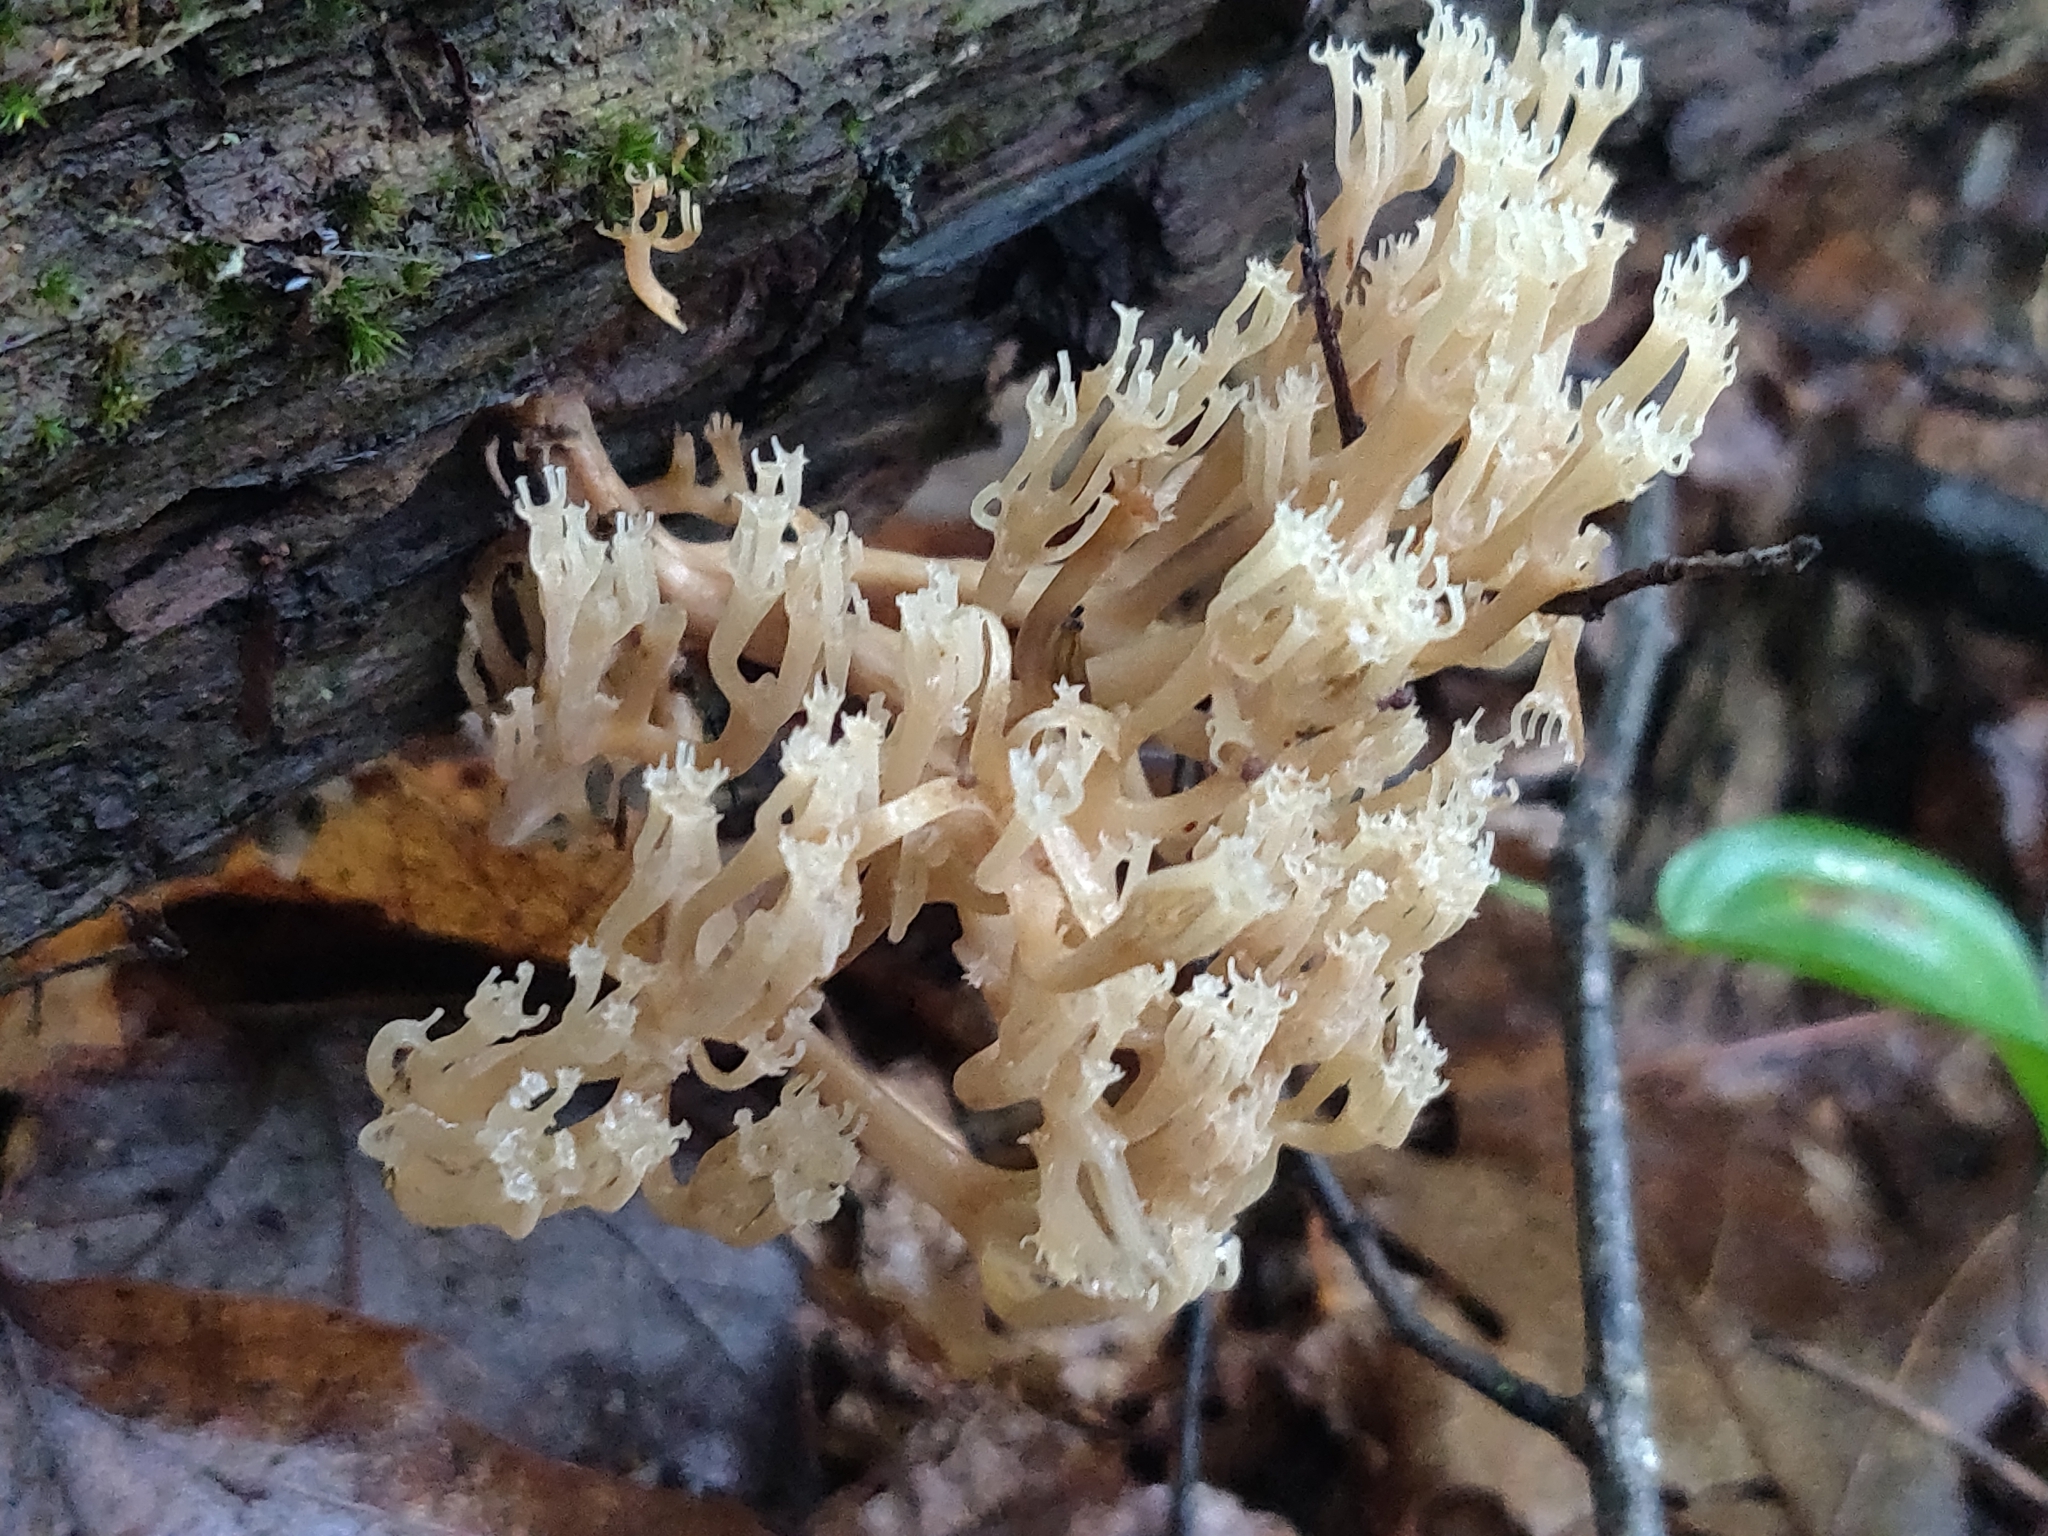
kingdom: Fungi
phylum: Basidiomycota
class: Agaricomycetes
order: Russulales
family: Auriscalpiaceae
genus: Artomyces
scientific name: Artomyces pyxidatus
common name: Crown-tipped coral fungus
